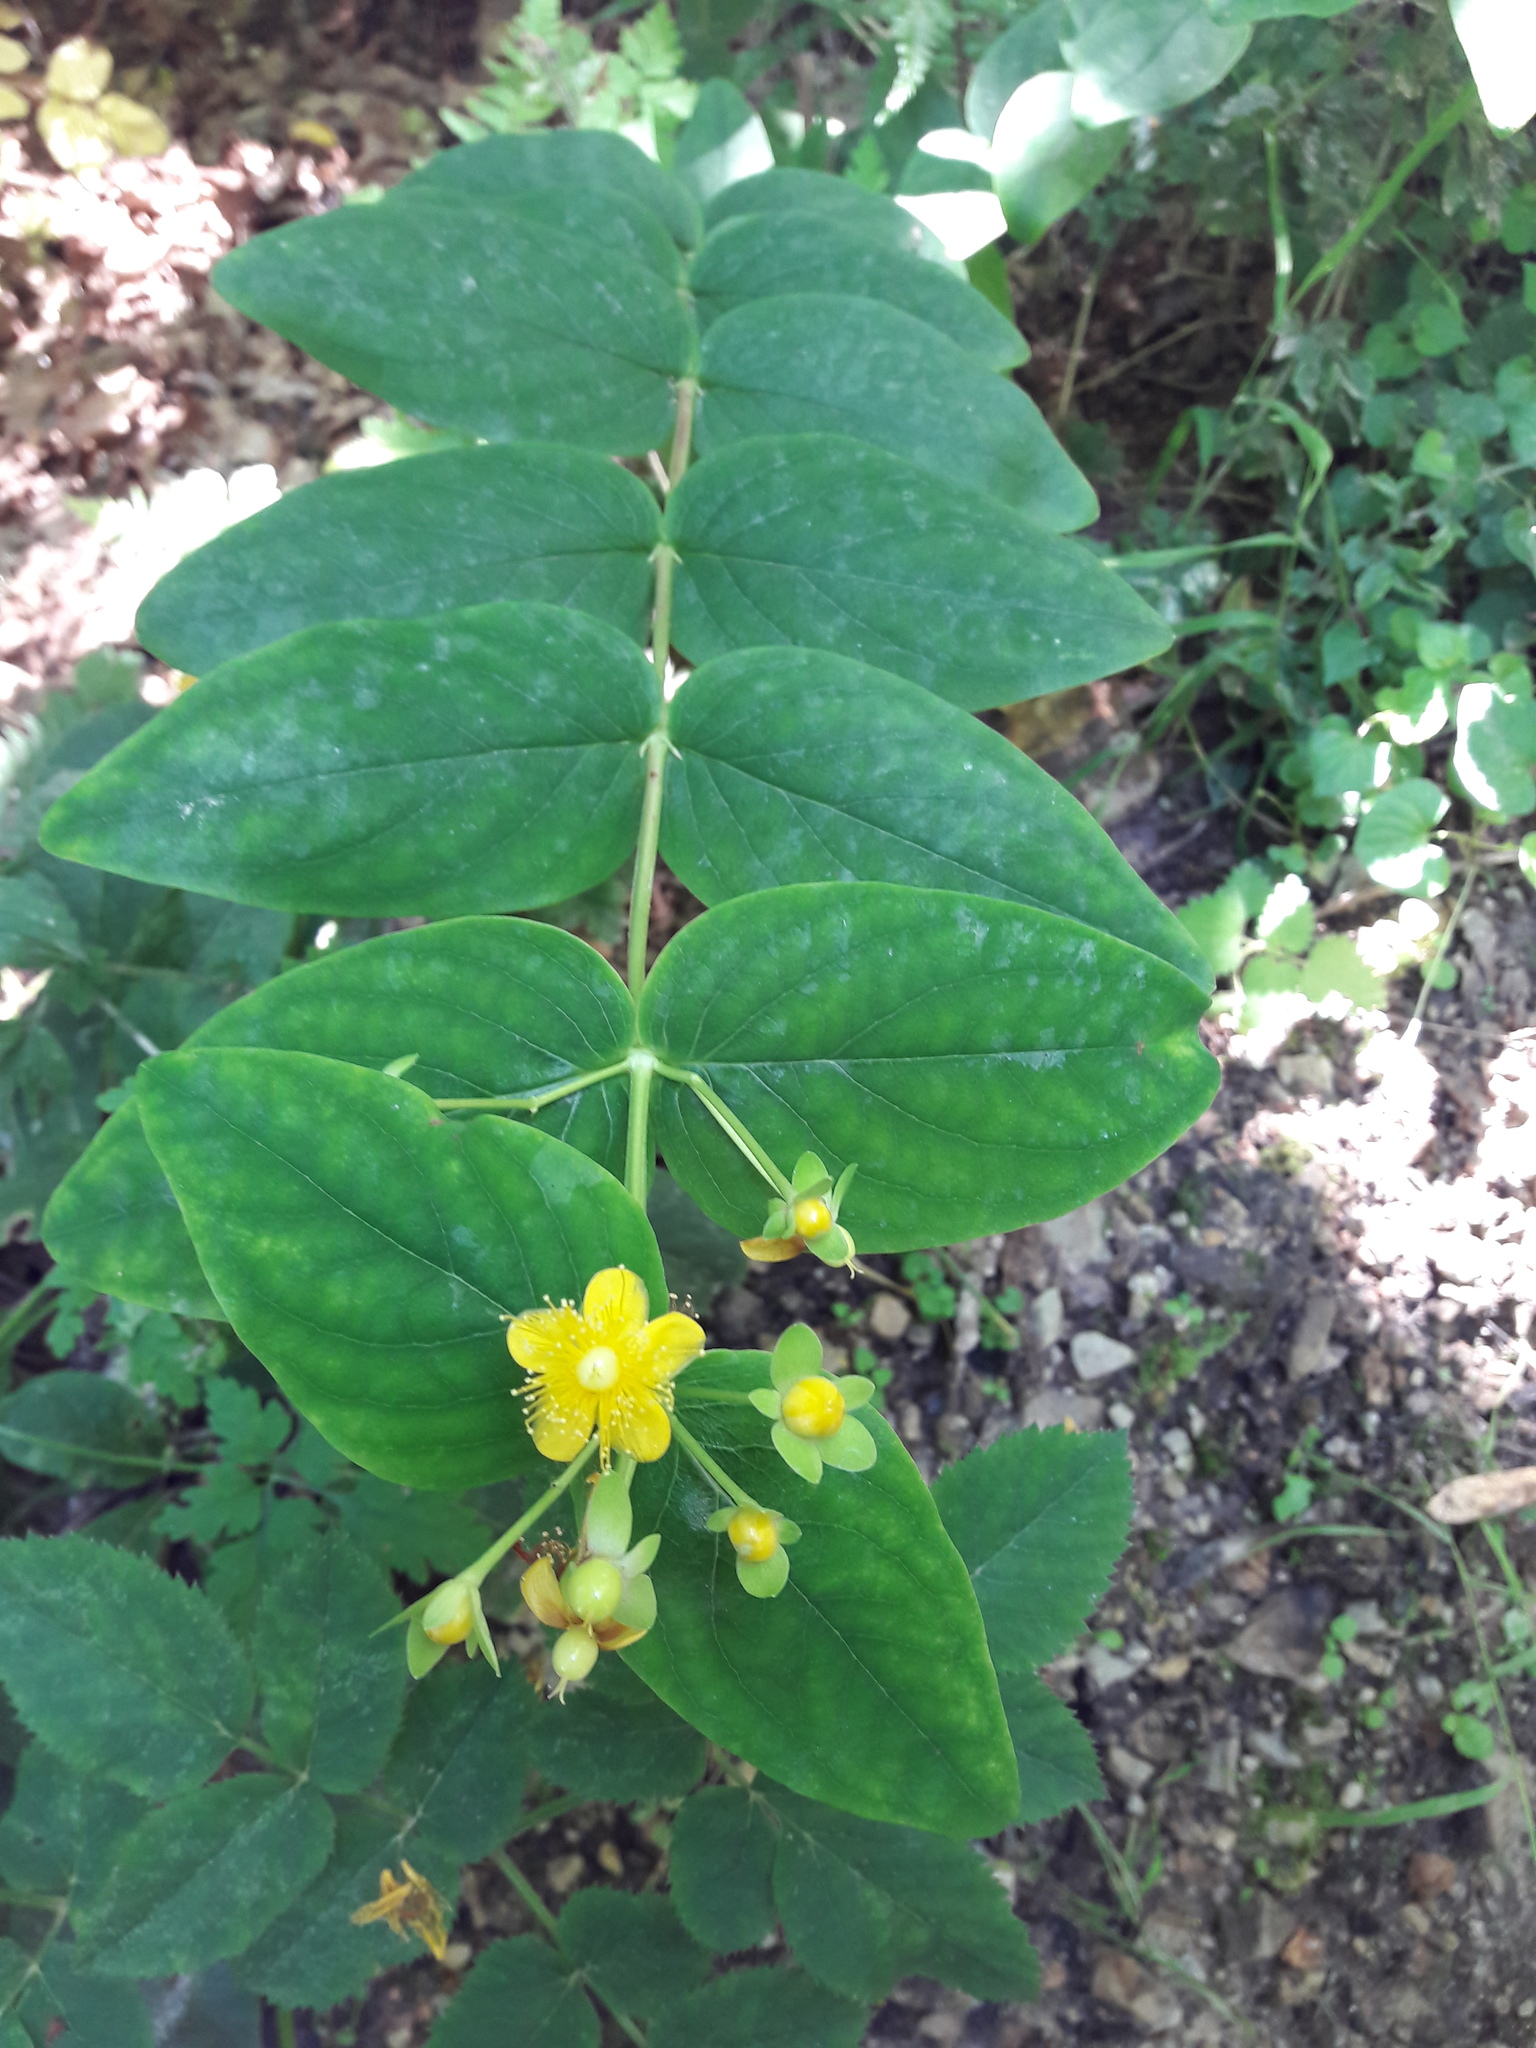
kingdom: Plantae
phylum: Tracheophyta
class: Magnoliopsida
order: Malpighiales
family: Hypericaceae
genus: Hypericum
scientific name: Hypericum androsaemum
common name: Sweet-amber
